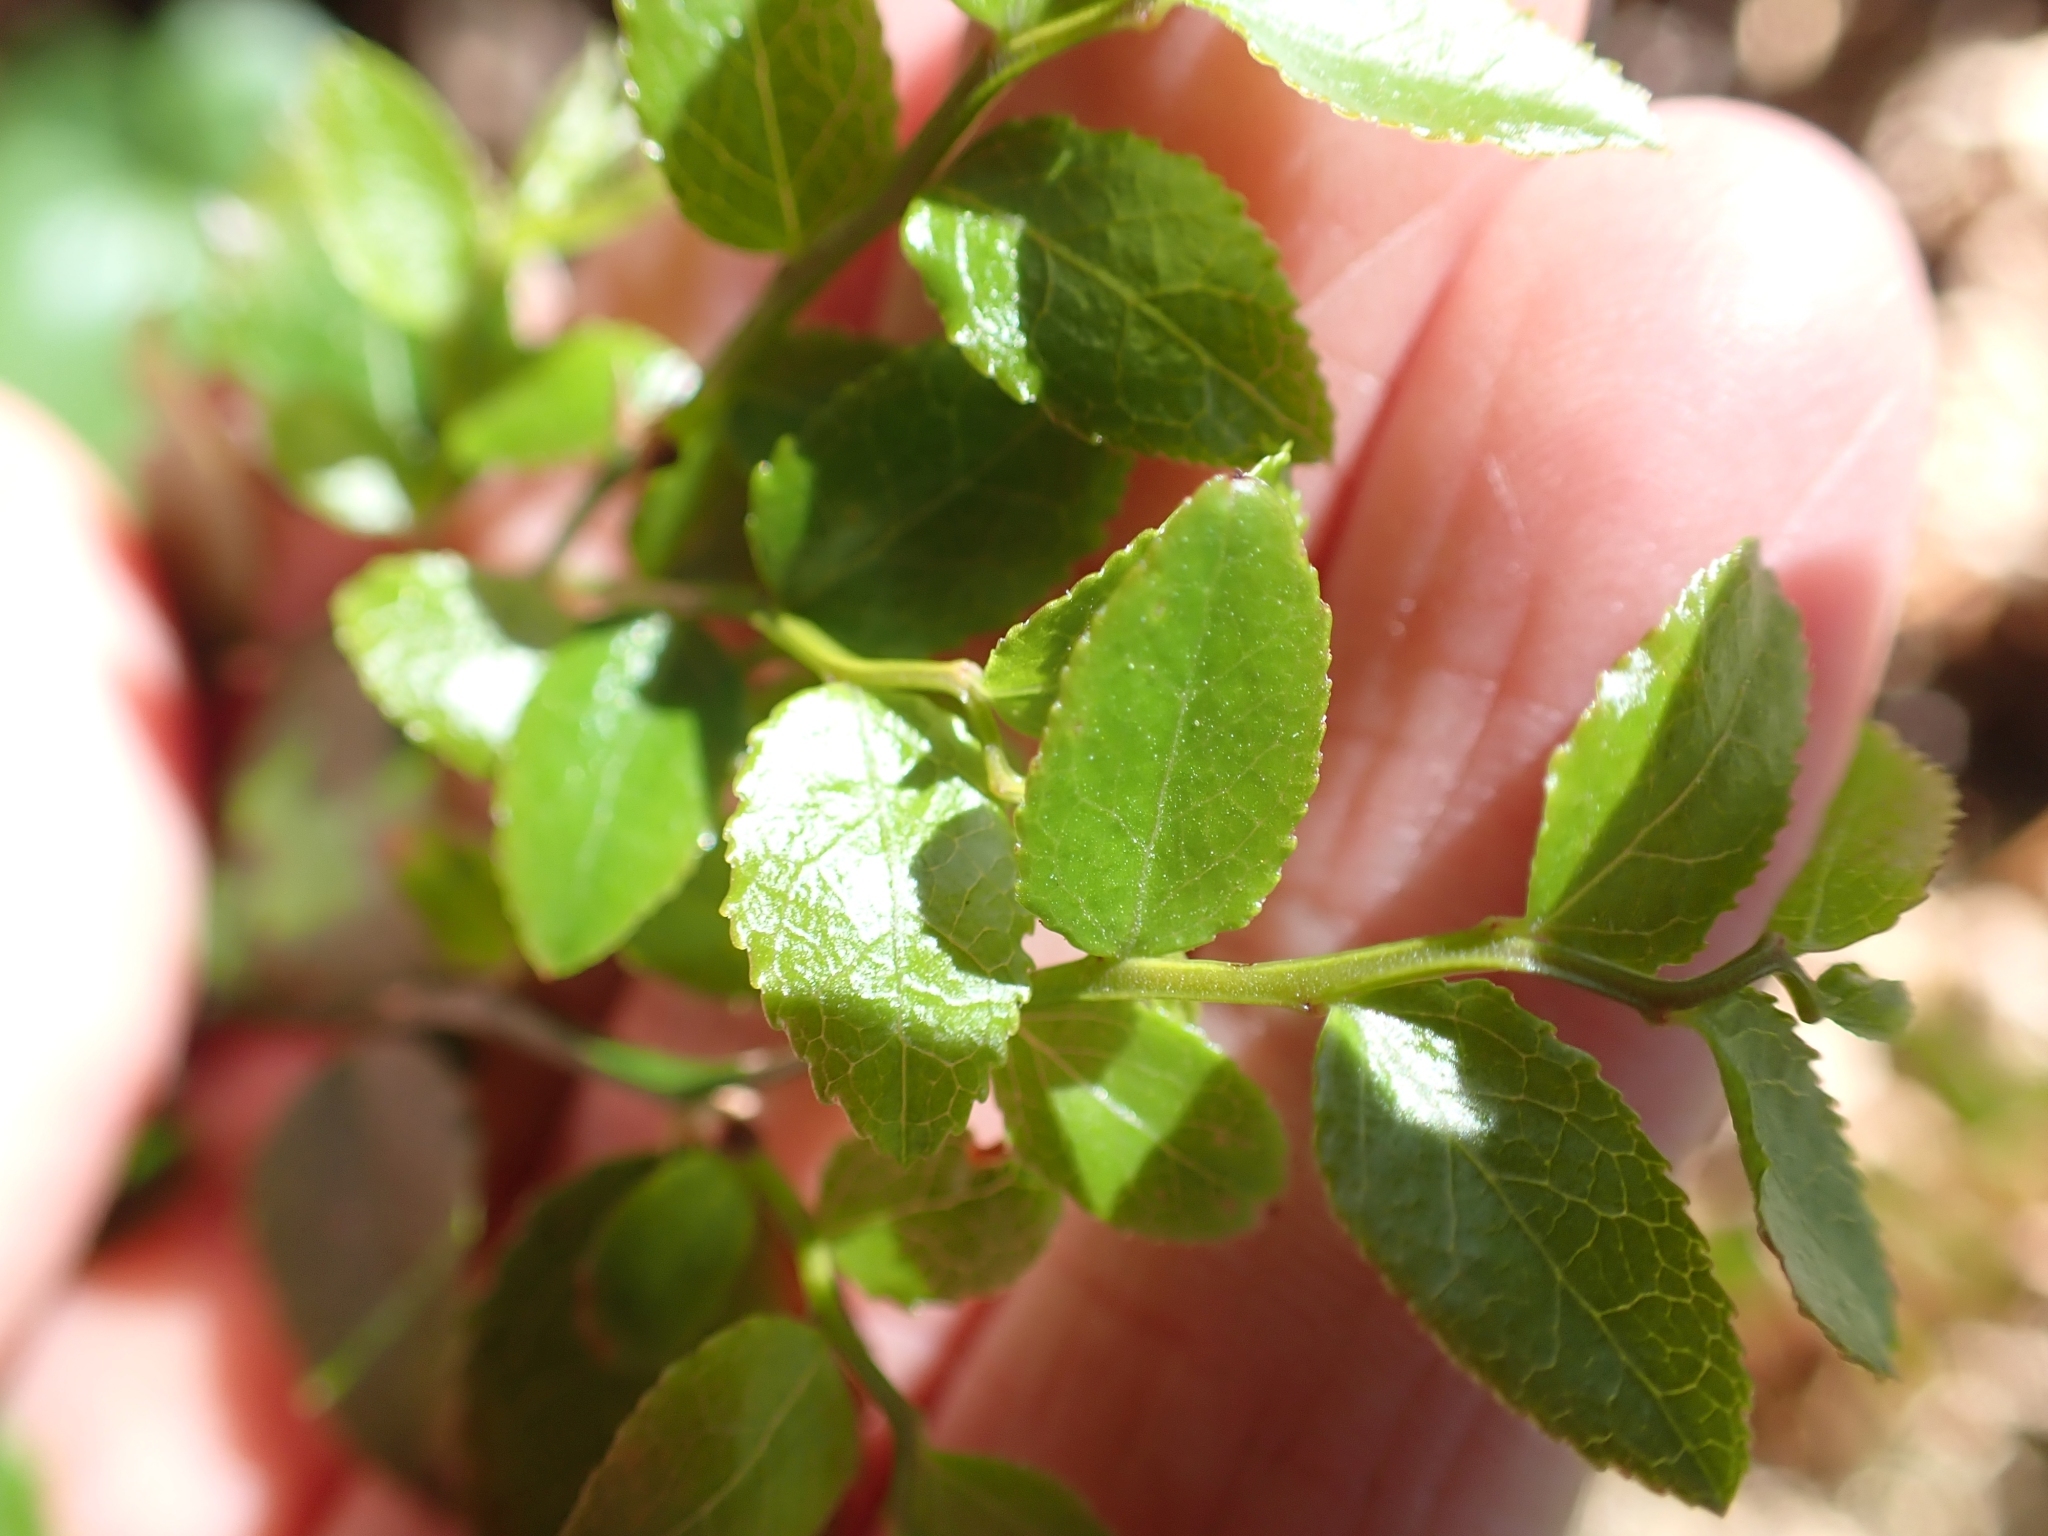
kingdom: Plantae
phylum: Tracheophyta
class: Magnoliopsida
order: Ericales
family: Ericaceae
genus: Vaccinium
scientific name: Vaccinium parvifolium
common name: Red-huckleberry
